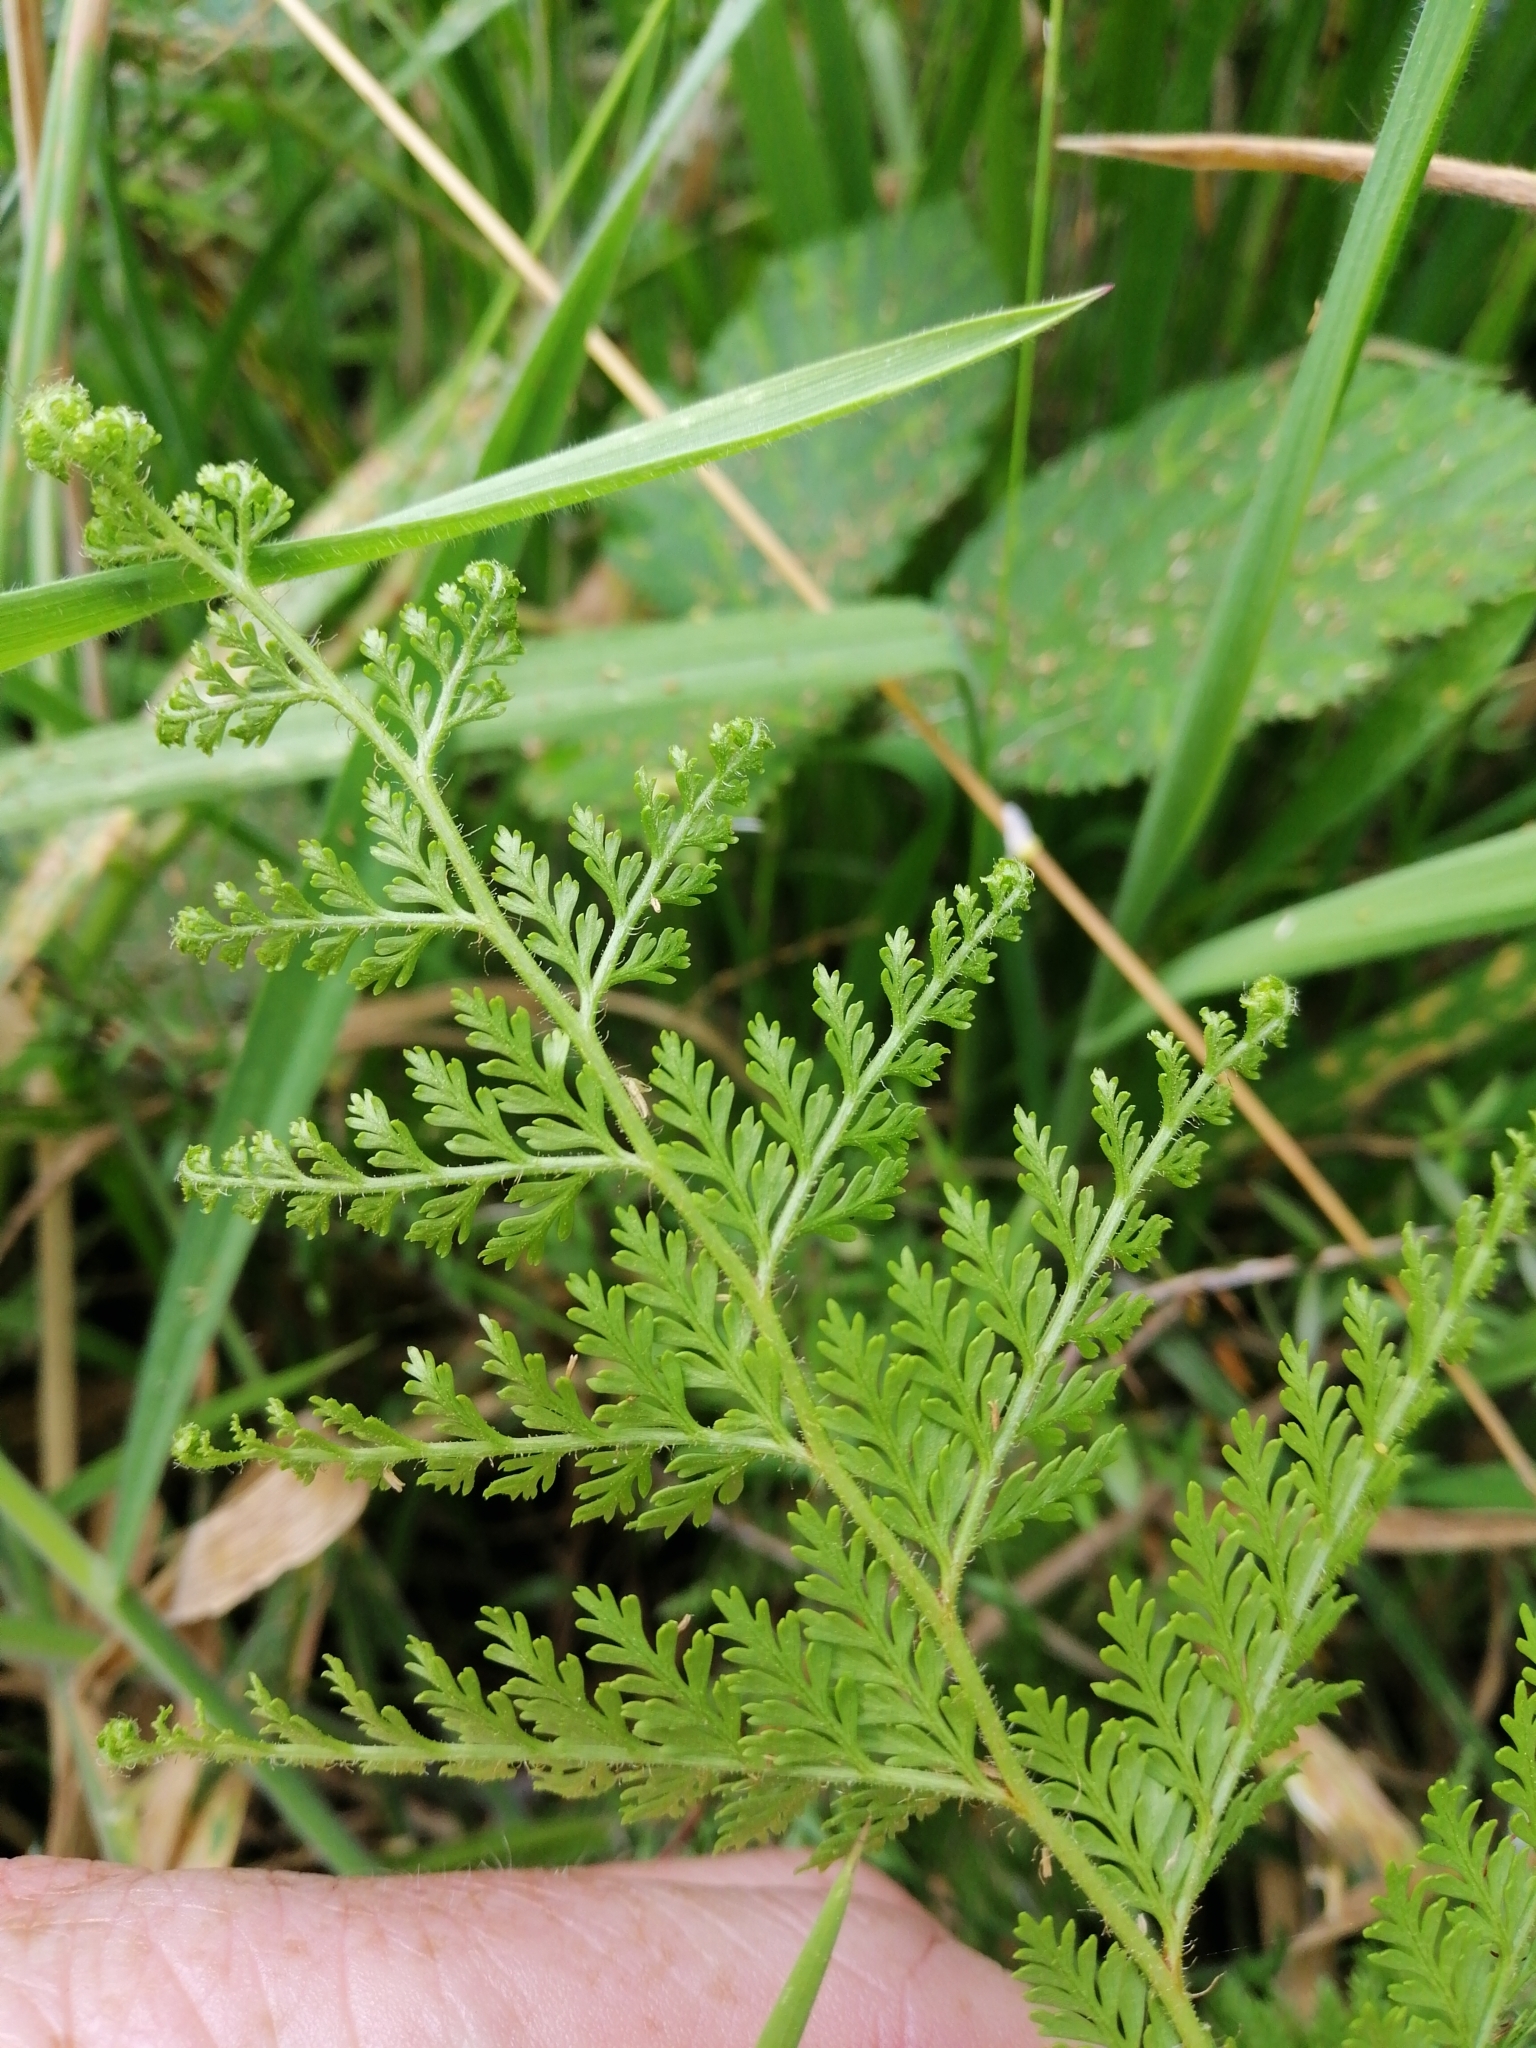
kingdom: Plantae
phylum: Tracheophyta
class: Polypodiopsida
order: Polypodiales
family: Dennstaedtiaceae
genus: Paesia
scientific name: Paesia scaberula
